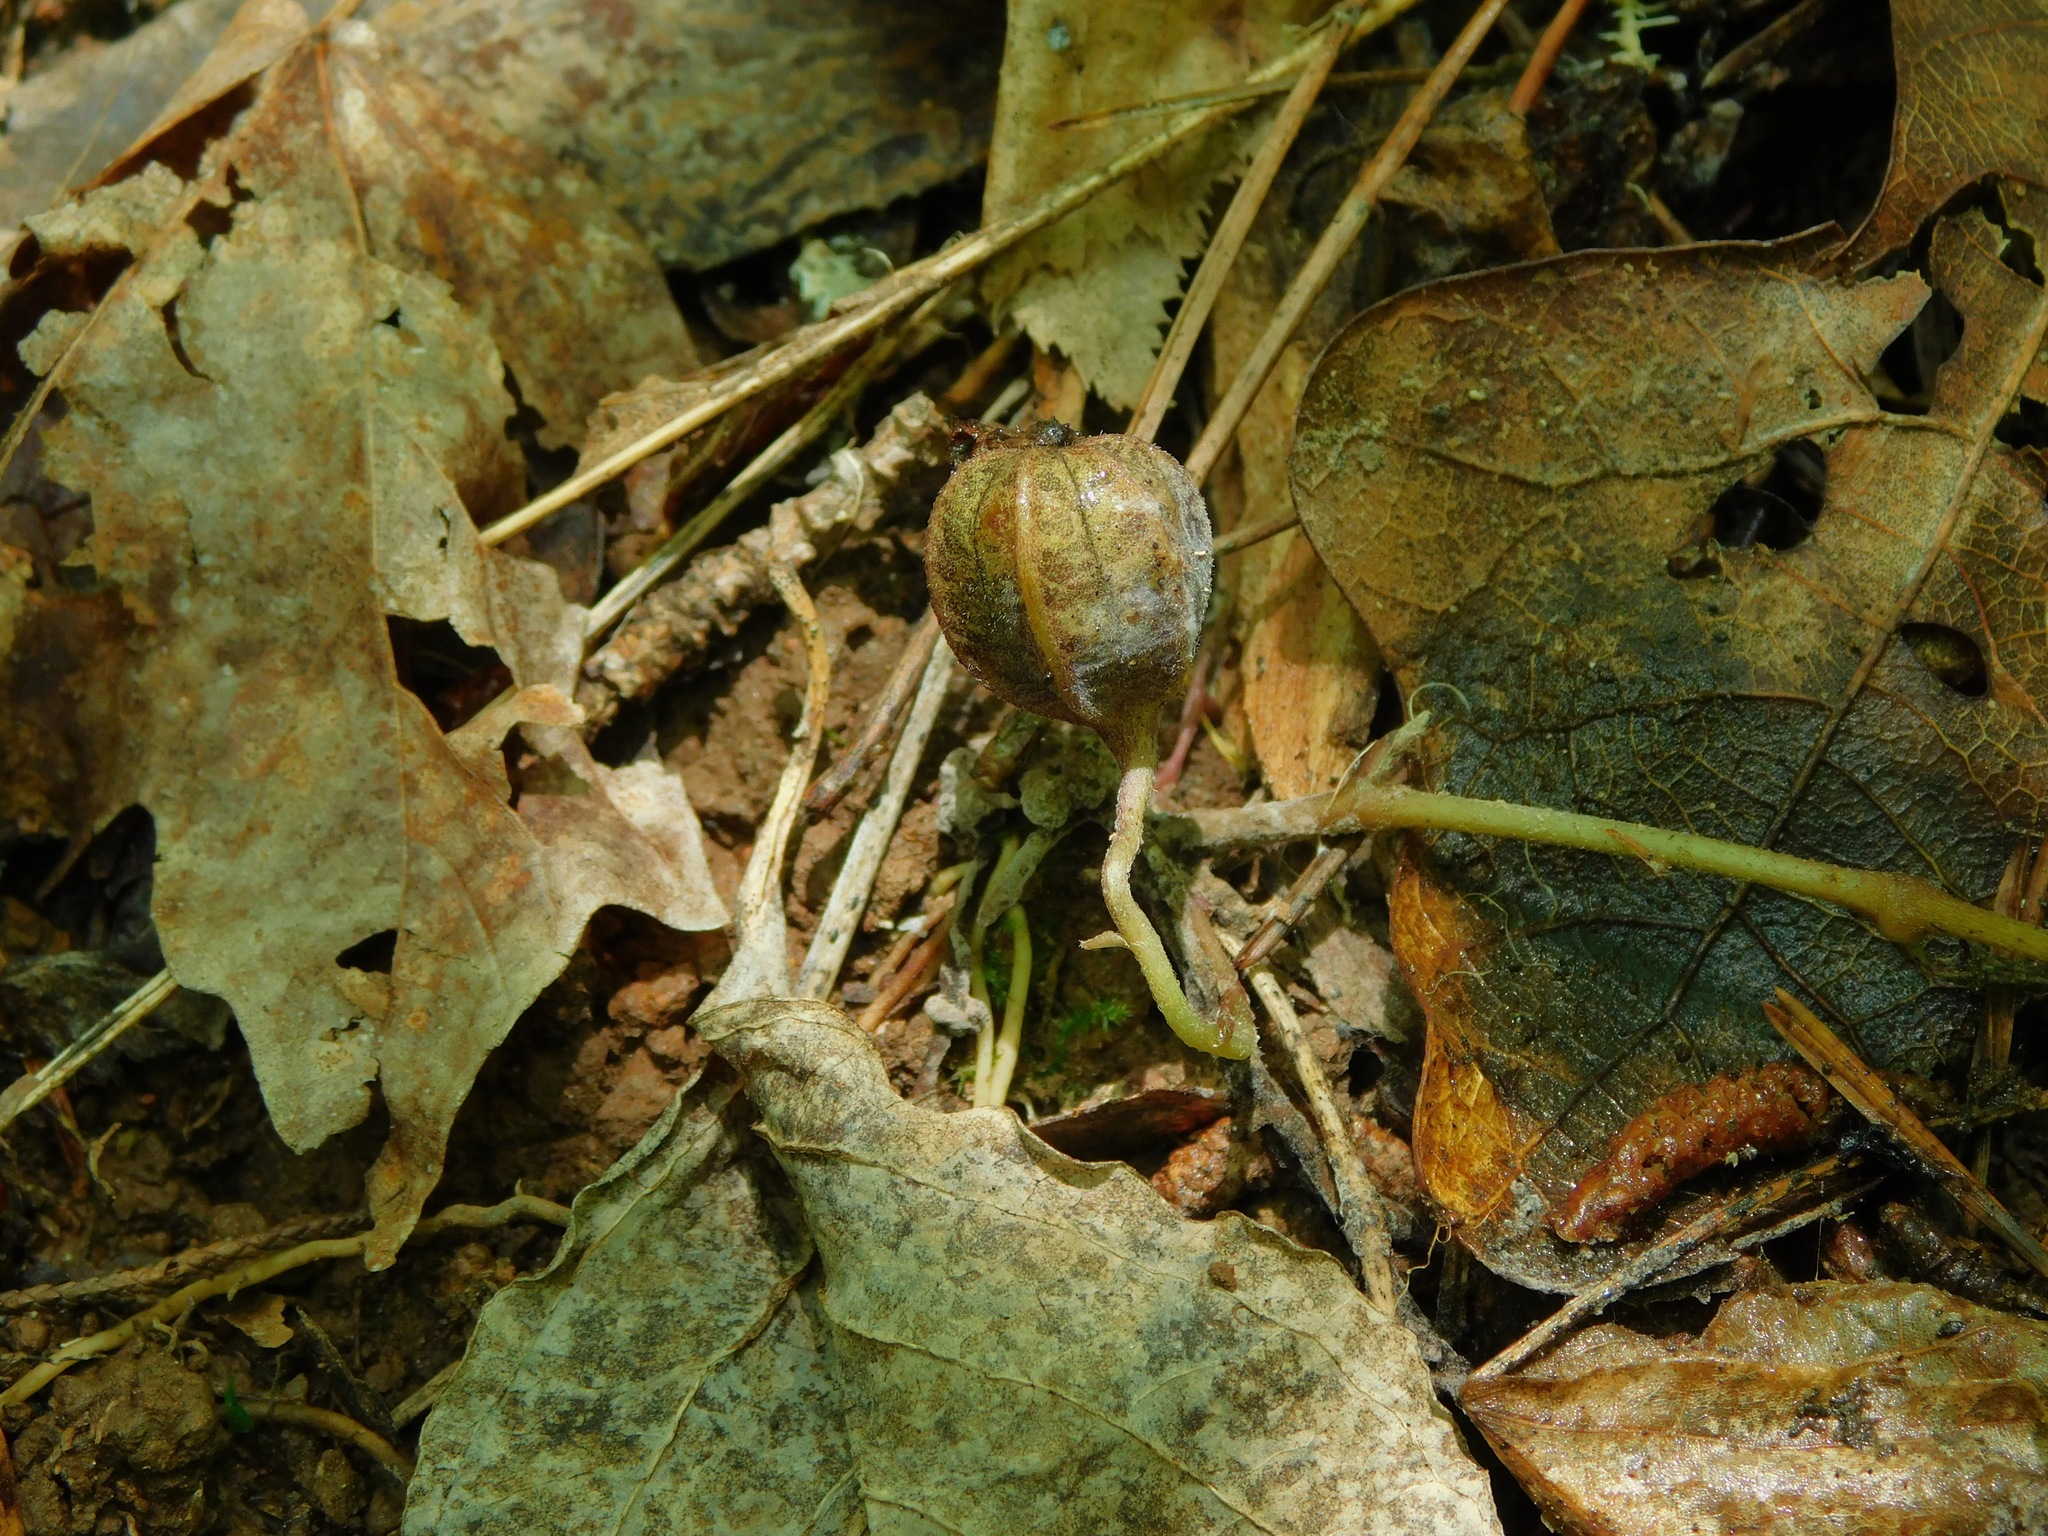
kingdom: Plantae
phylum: Tracheophyta
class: Magnoliopsida
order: Piperales
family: Aristolochiaceae
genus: Endodeca
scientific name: Endodeca serpentaria
